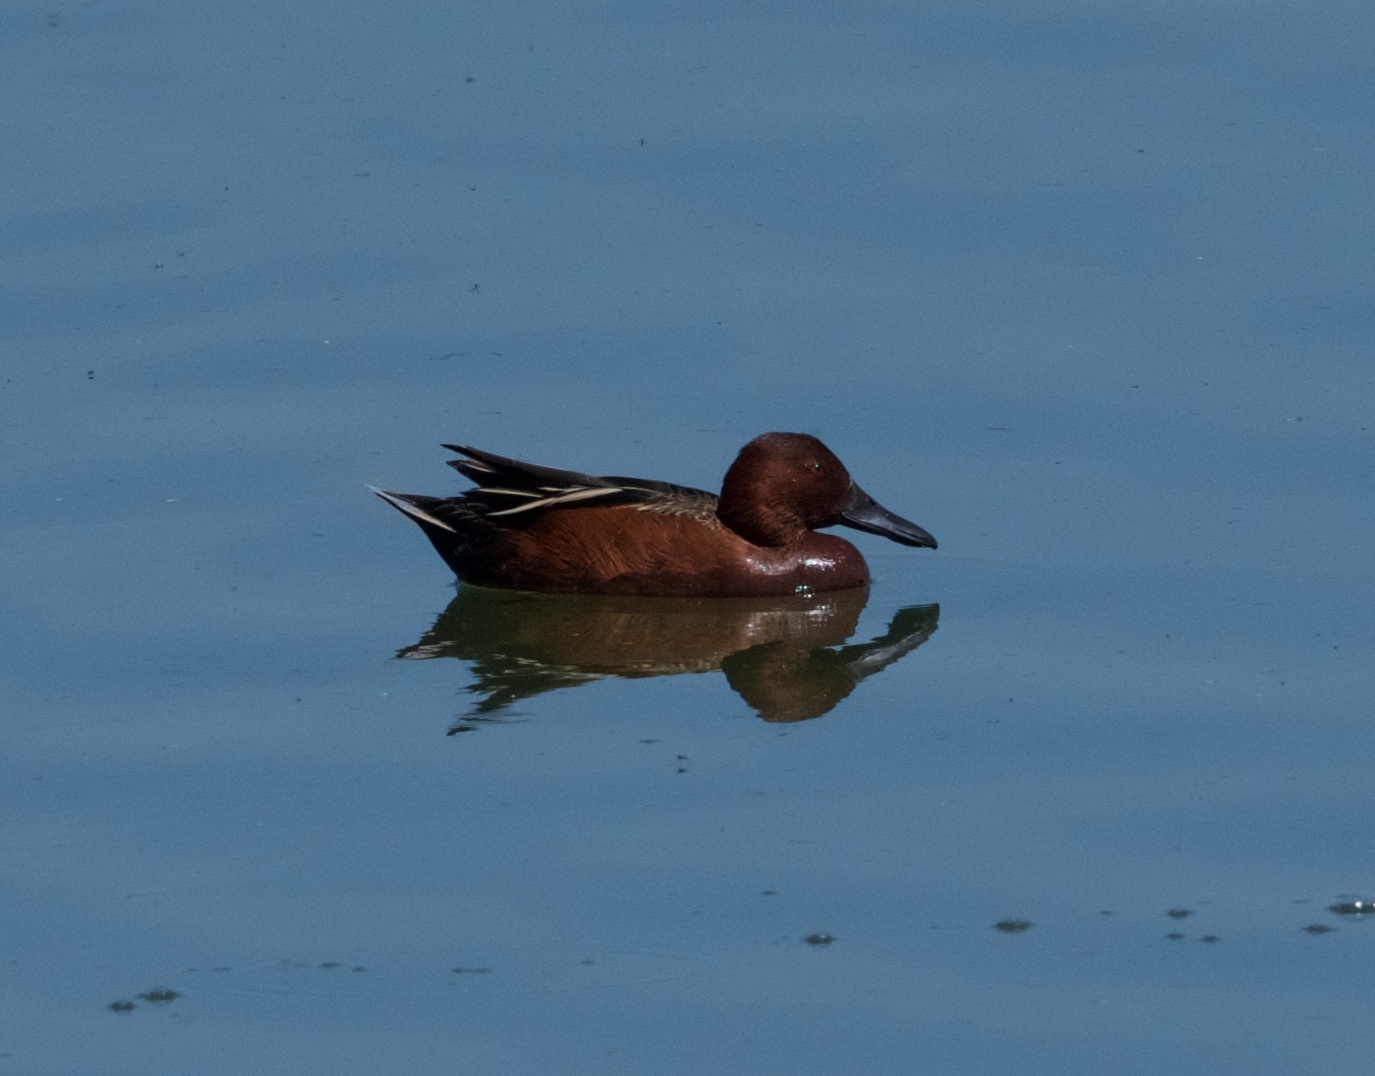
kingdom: Animalia
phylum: Chordata
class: Aves
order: Anseriformes
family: Anatidae
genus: Spatula
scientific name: Spatula cyanoptera
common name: Cinnamon teal
